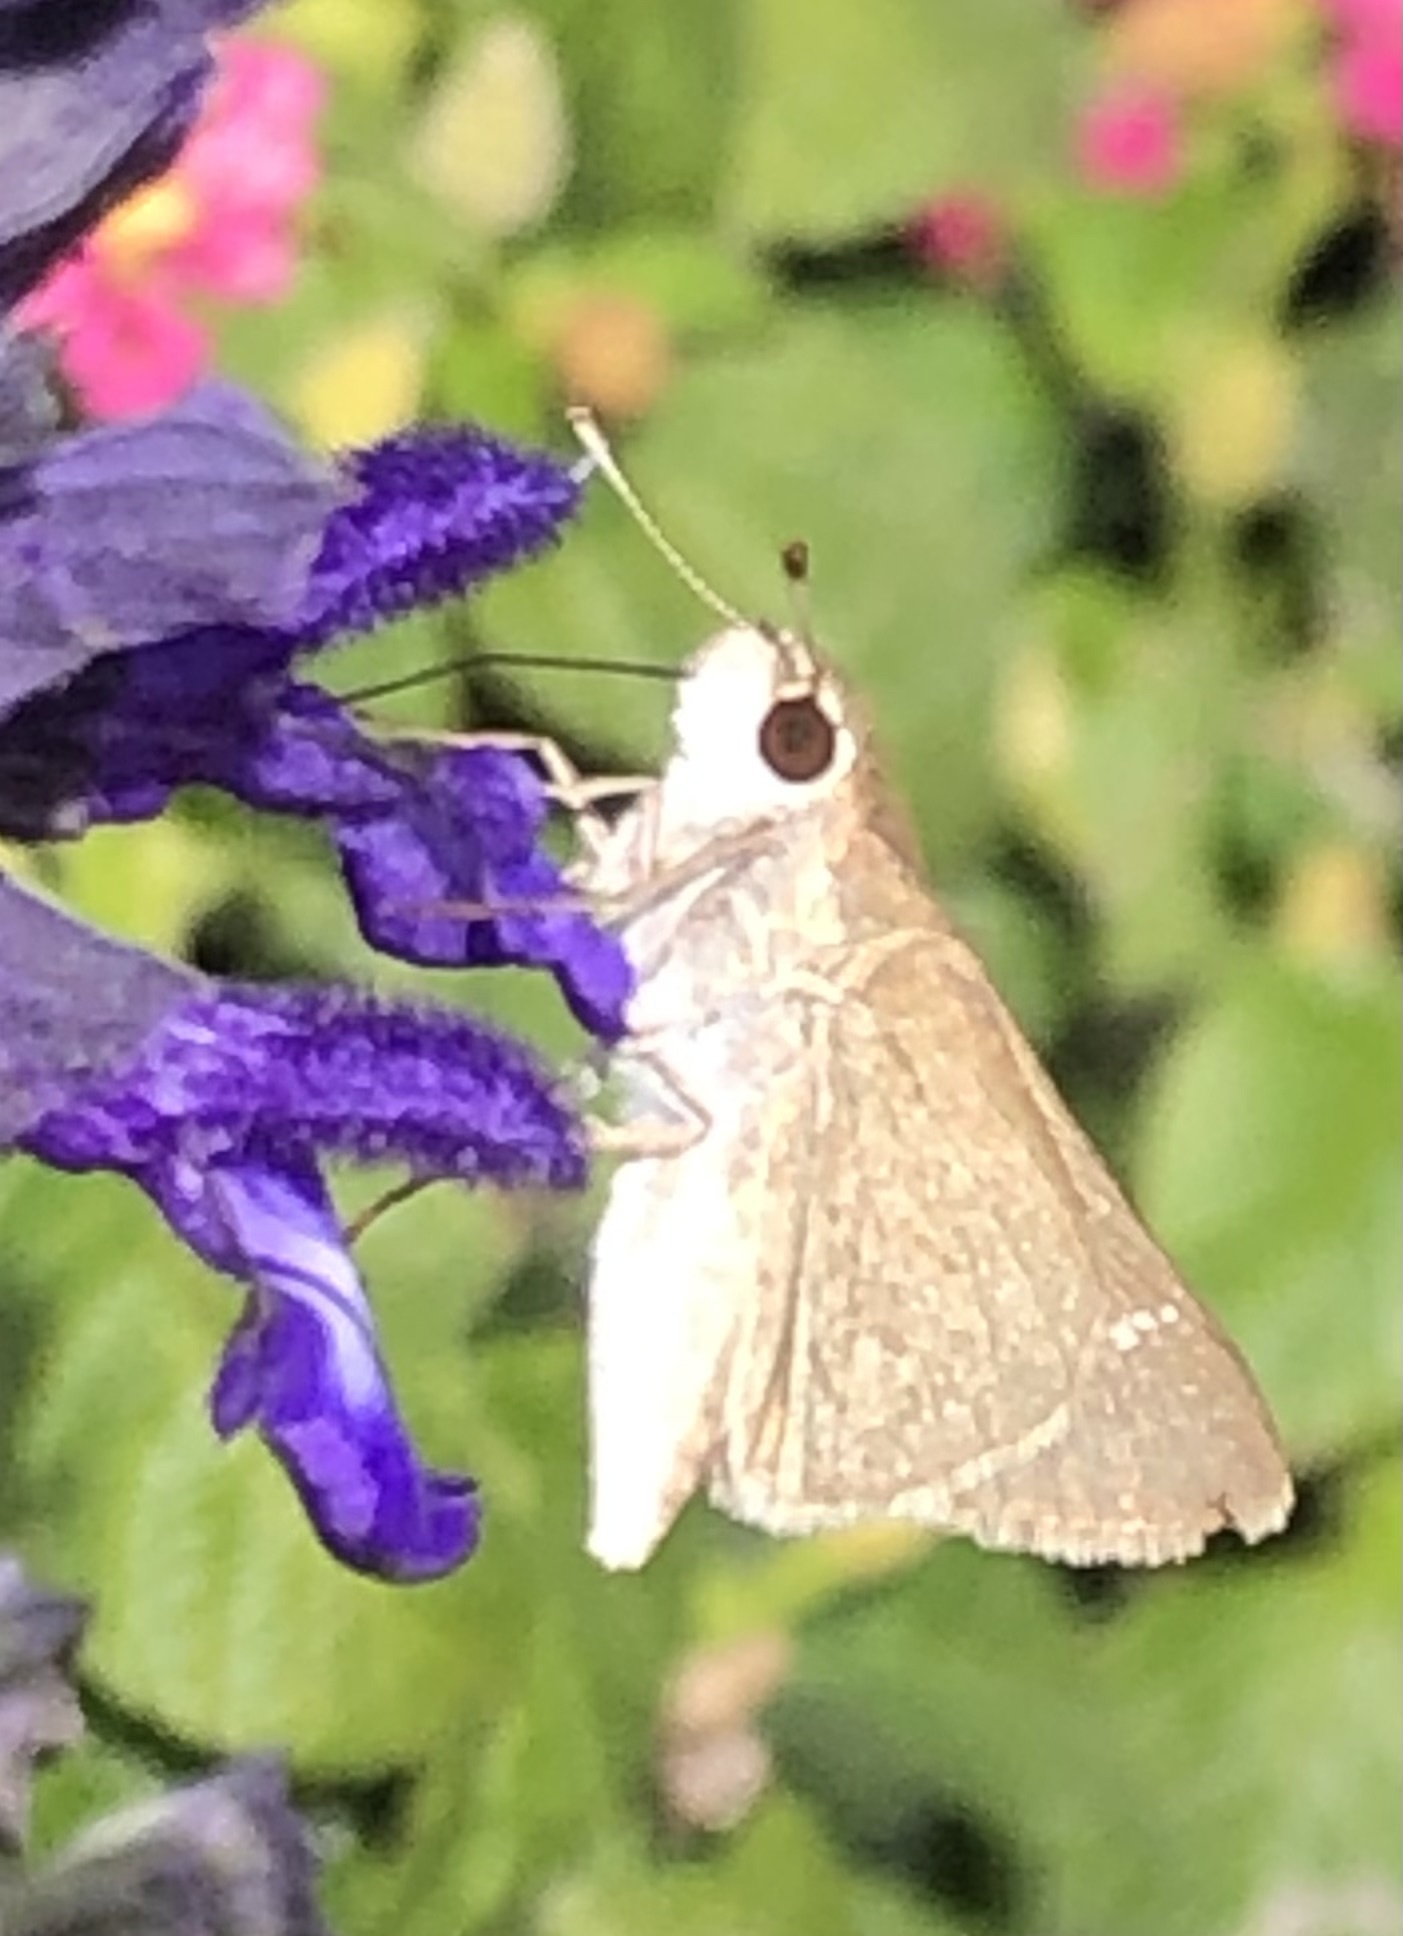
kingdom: Animalia
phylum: Arthropoda
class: Insecta
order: Lepidoptera
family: Hesperiidae
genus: Lerodea
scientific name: Lerodea eufala
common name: Eufala skipper
